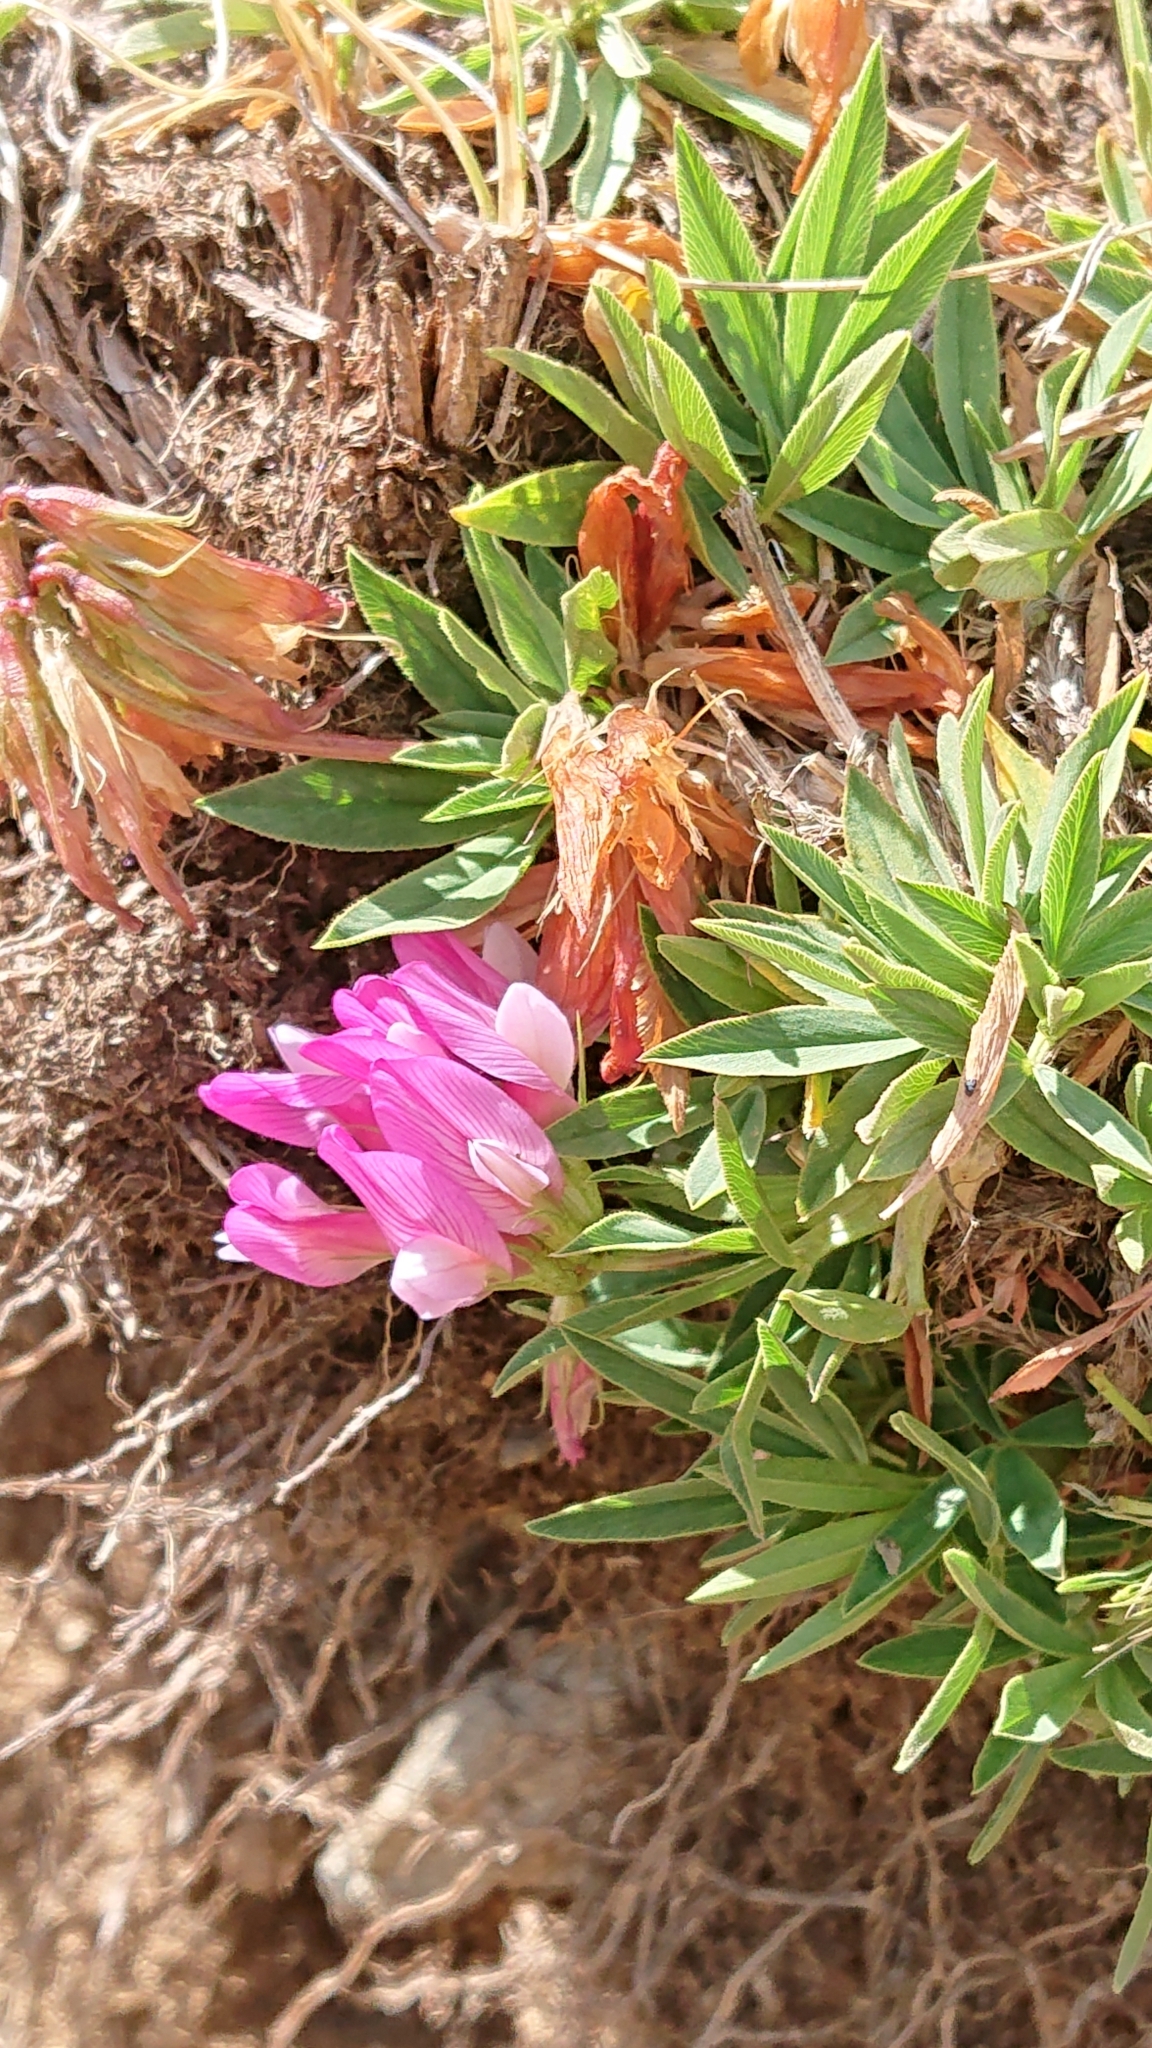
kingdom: Plantae
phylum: Tracheophyta
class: Magnoliopsida
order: Fabales
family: Fabaceae
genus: Trifolium
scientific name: Trifolium alpinum
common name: Alpine clover
